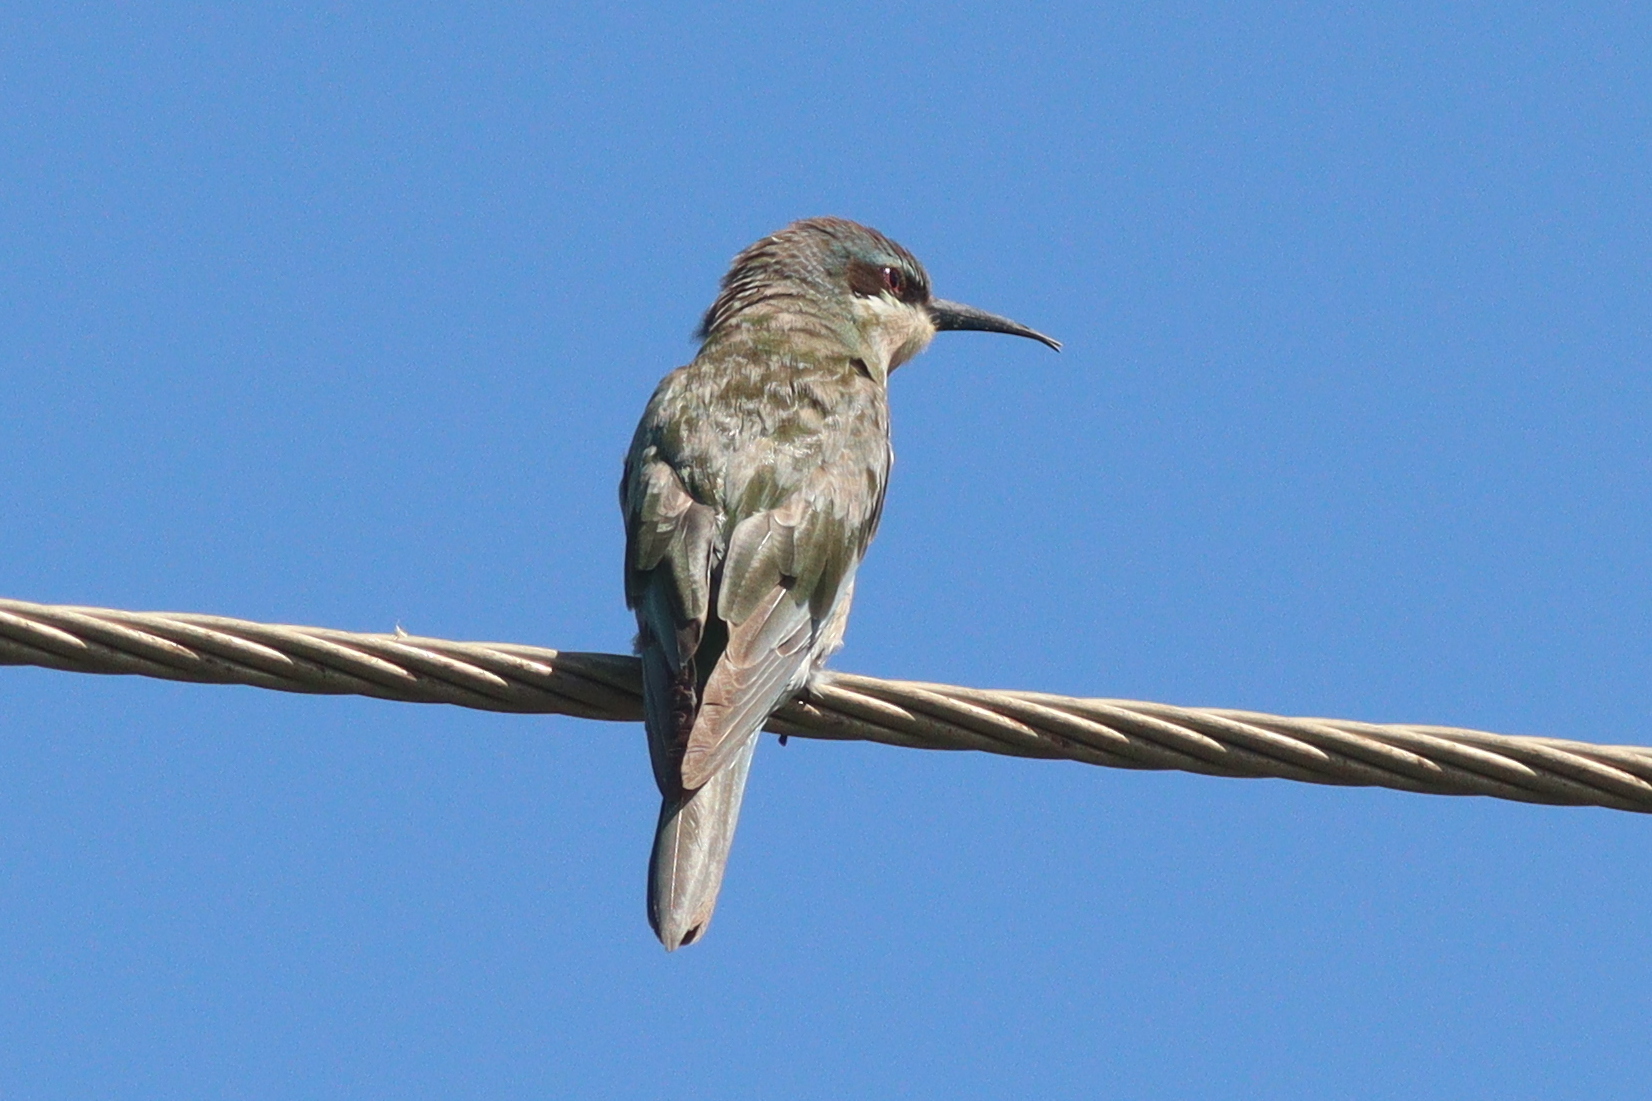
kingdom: Animalia
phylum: Chordata
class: Aves
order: Coraciiformes
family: Meropidae
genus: Merops
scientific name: Merops persicus
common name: Blue-cheeked bee-eater
